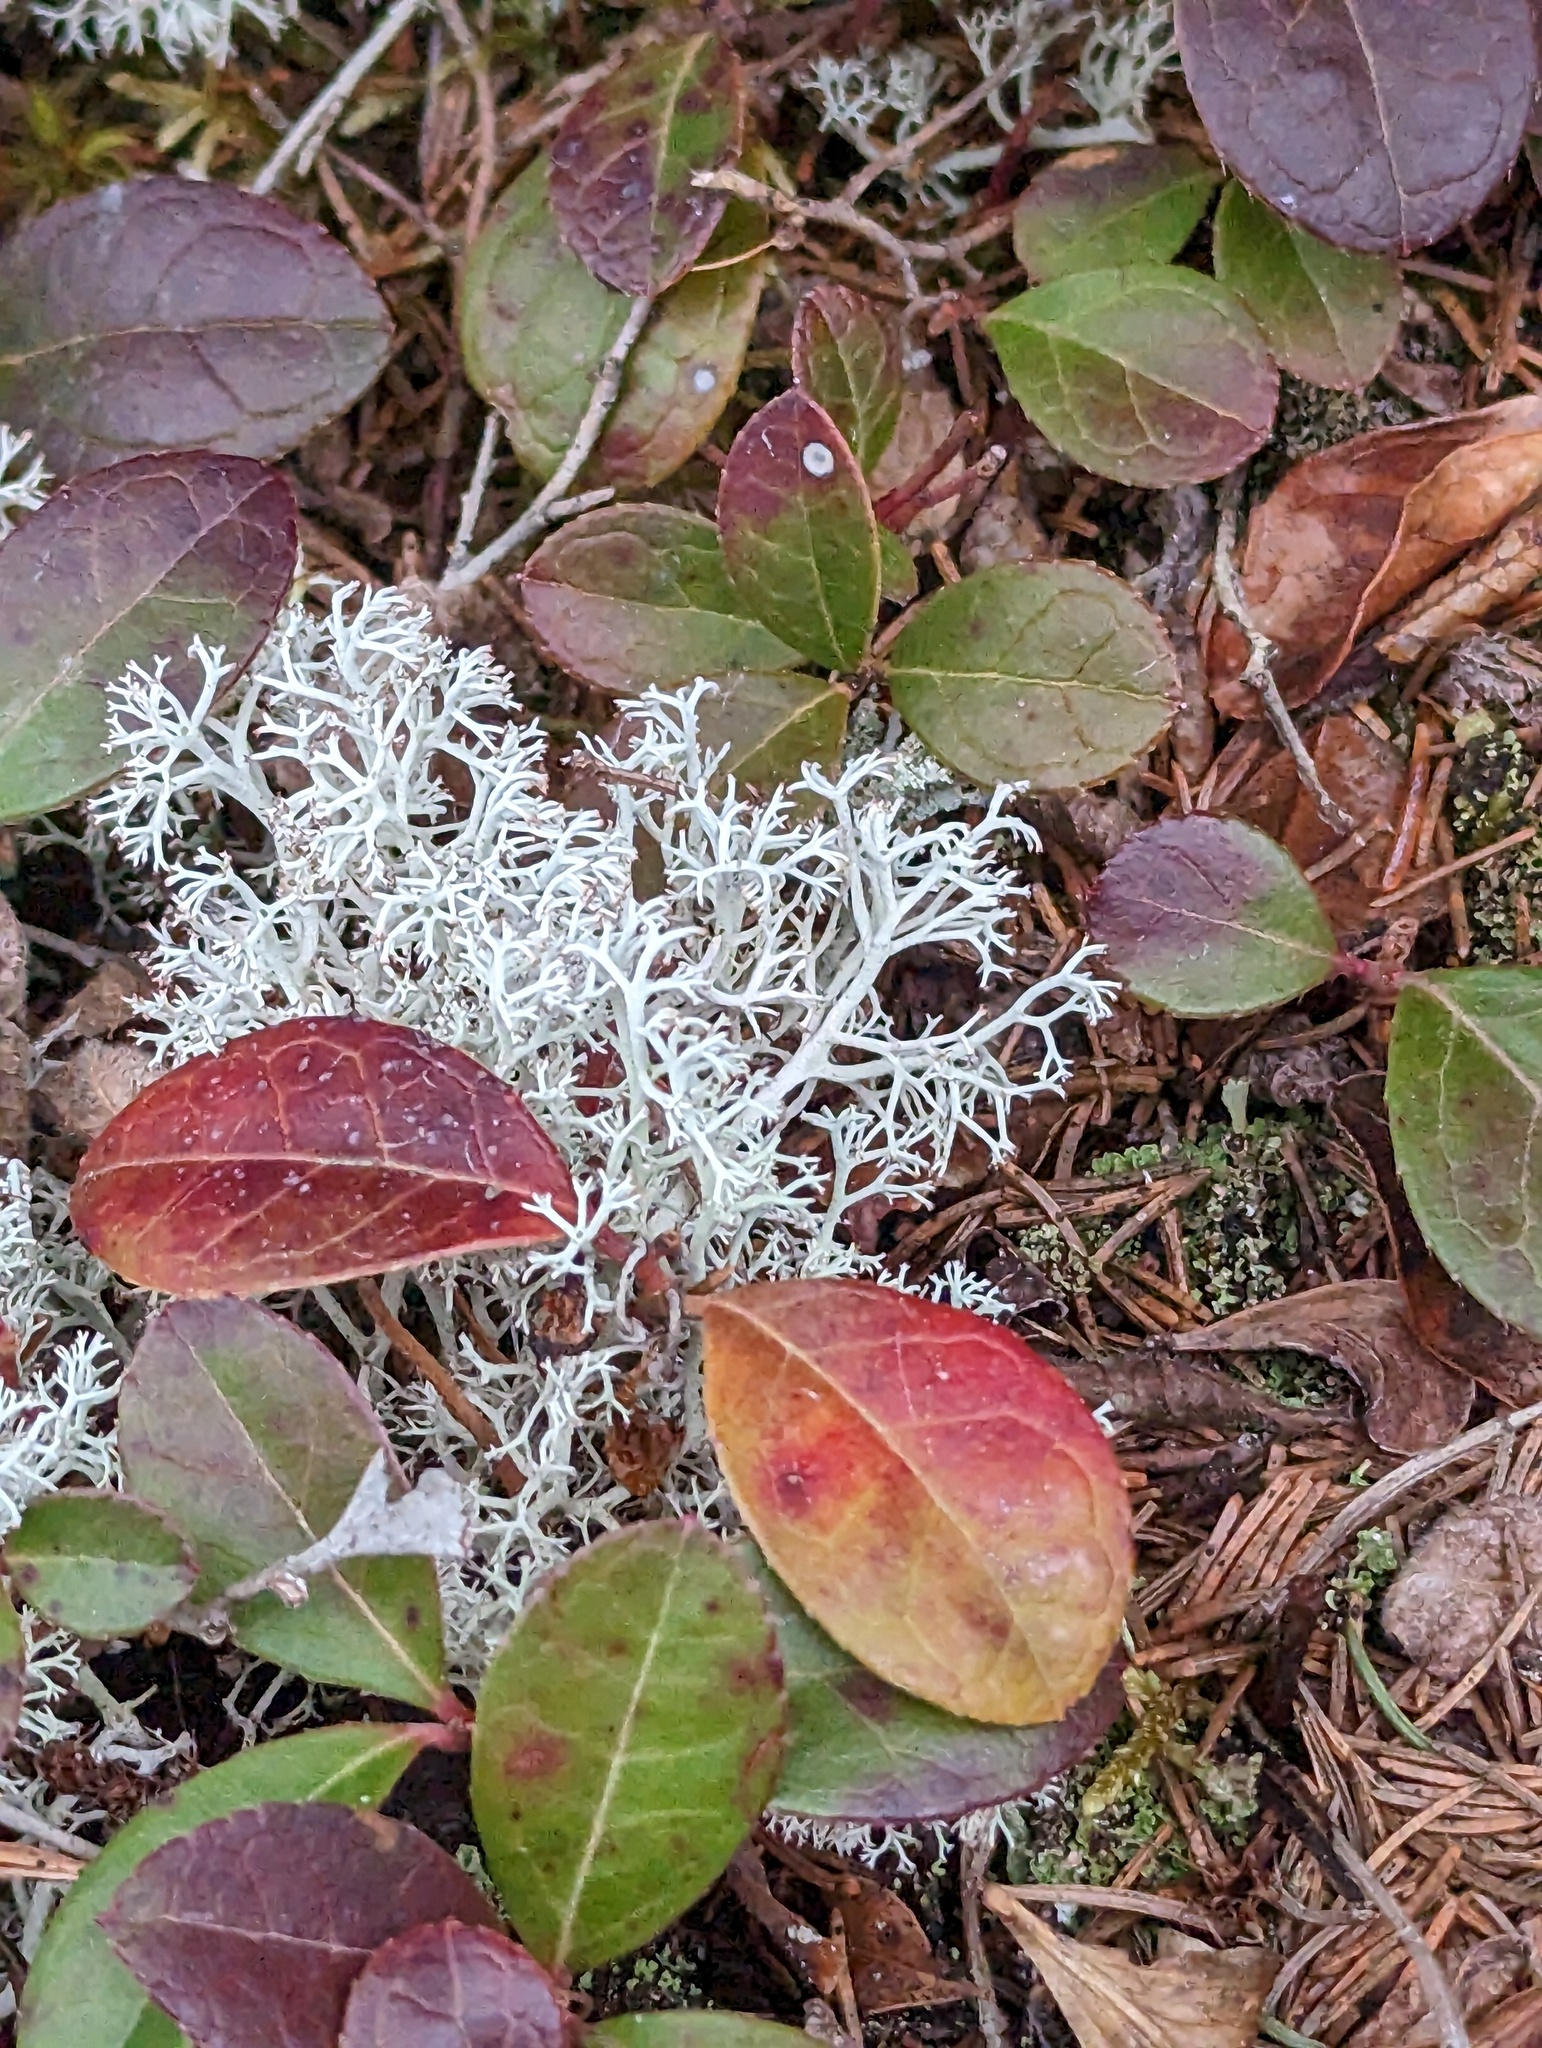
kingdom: Plantae
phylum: Tracheophyta
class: Magnoliopsida
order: Ericales
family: Ericaceae
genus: Gaultheria
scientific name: Gaultheria procumbens
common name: Checkerberry
